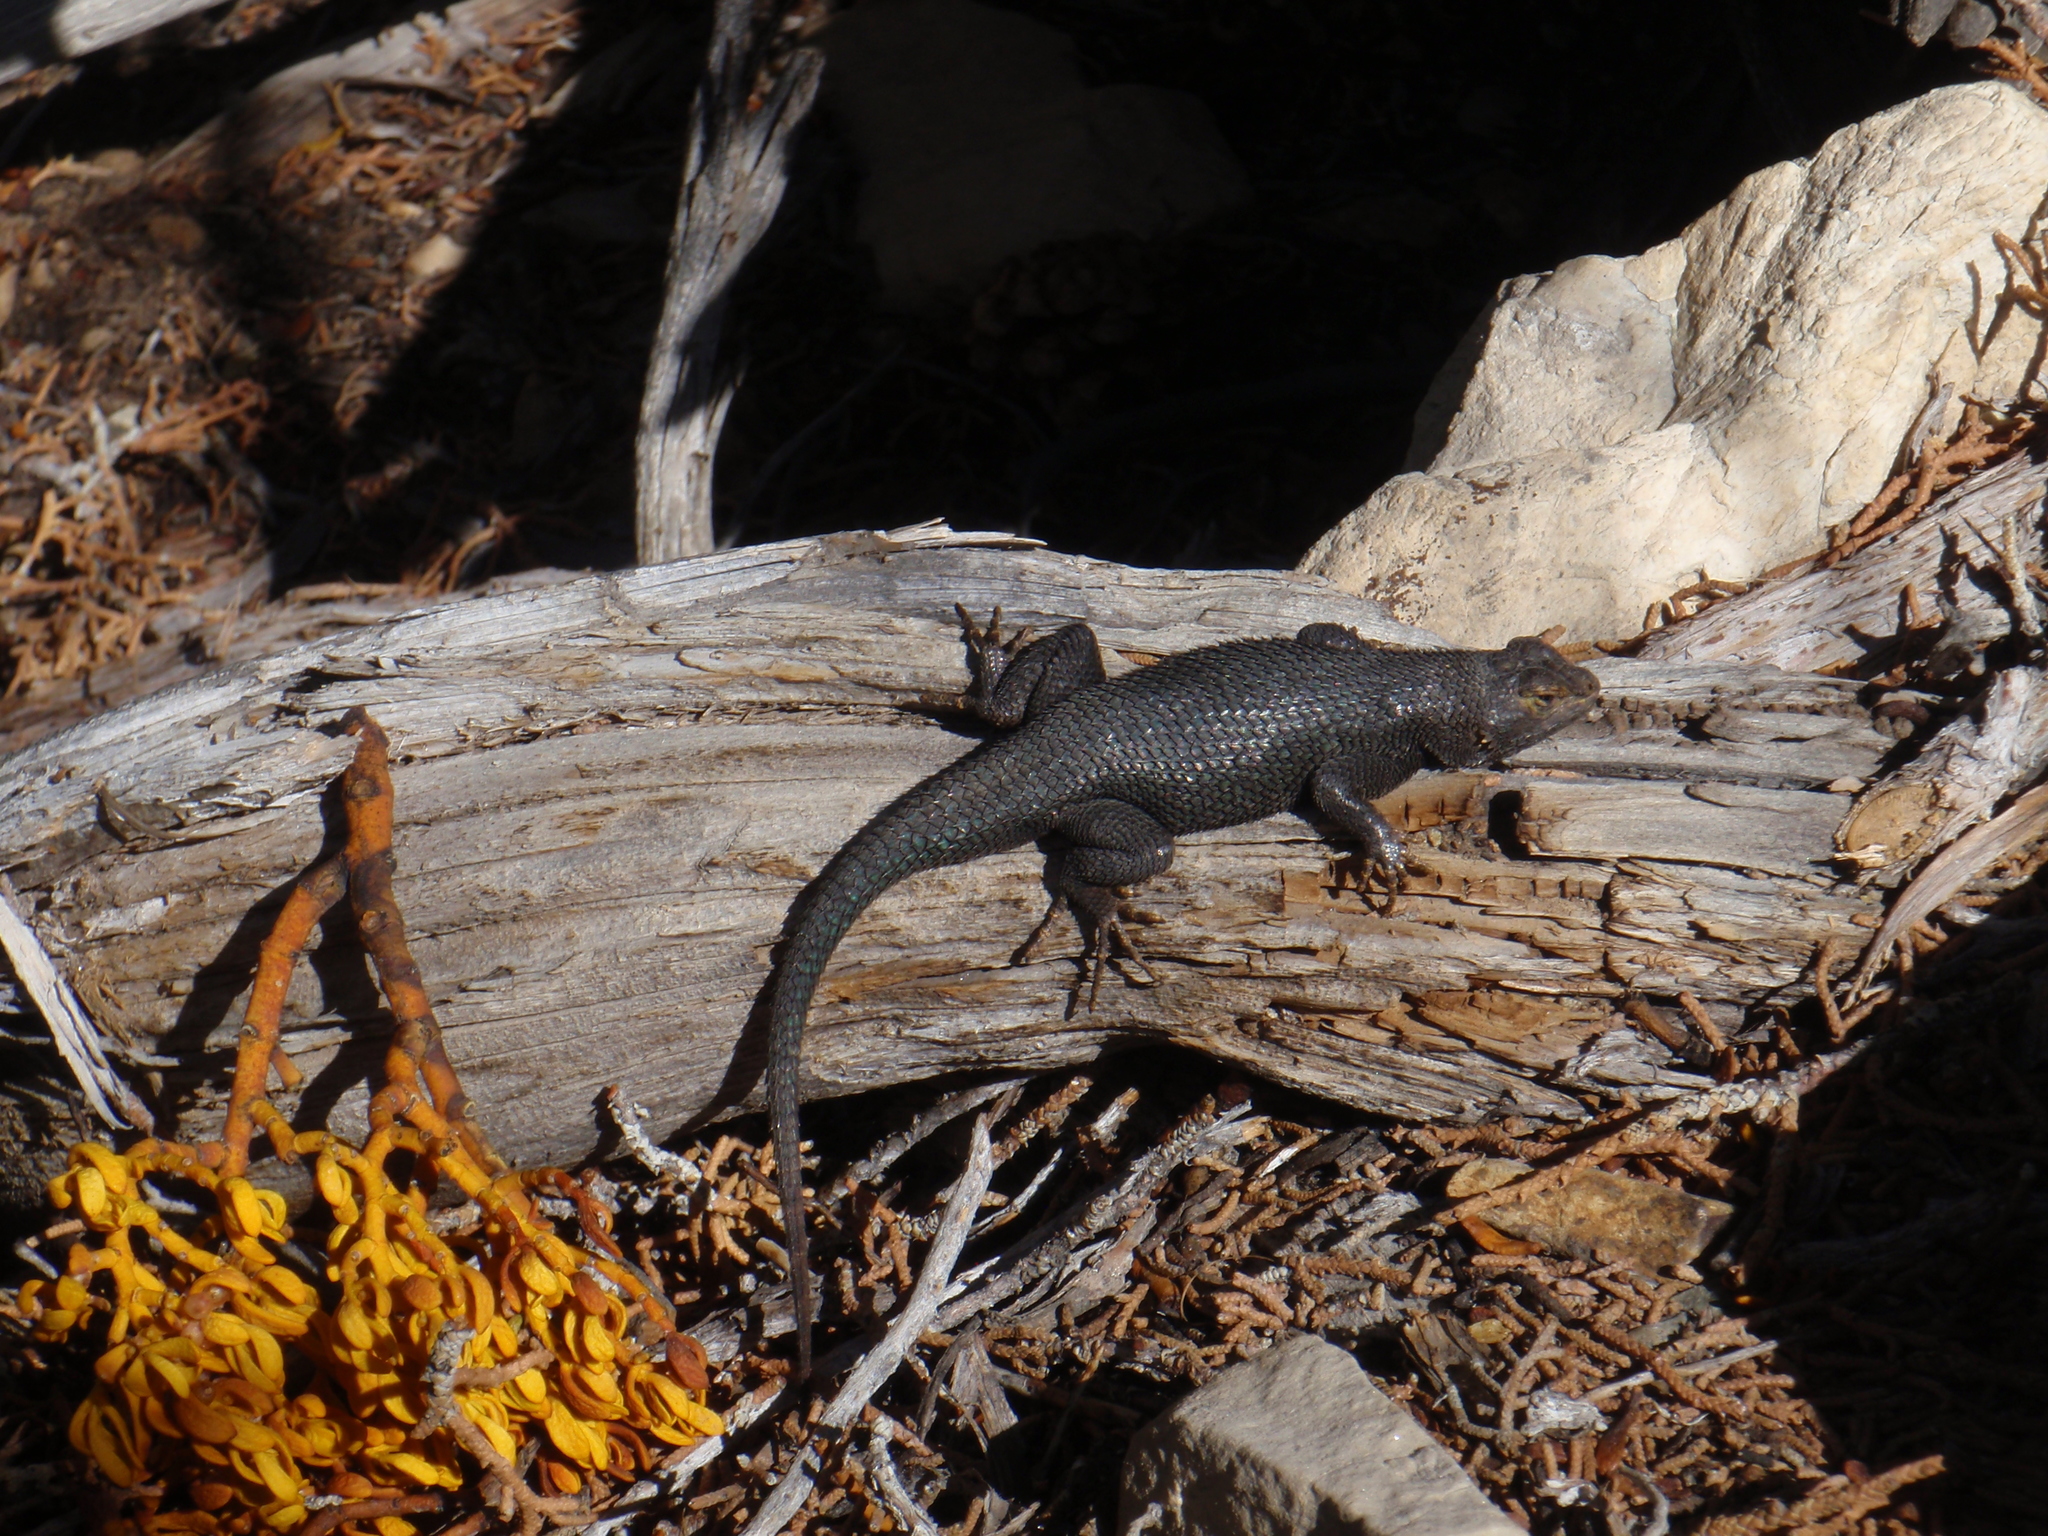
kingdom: Animalia
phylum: Chordata
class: Squamata
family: Phrynosomatidae
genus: Sceloporus
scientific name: Sceloporus occidentalis
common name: Western fence lizard
